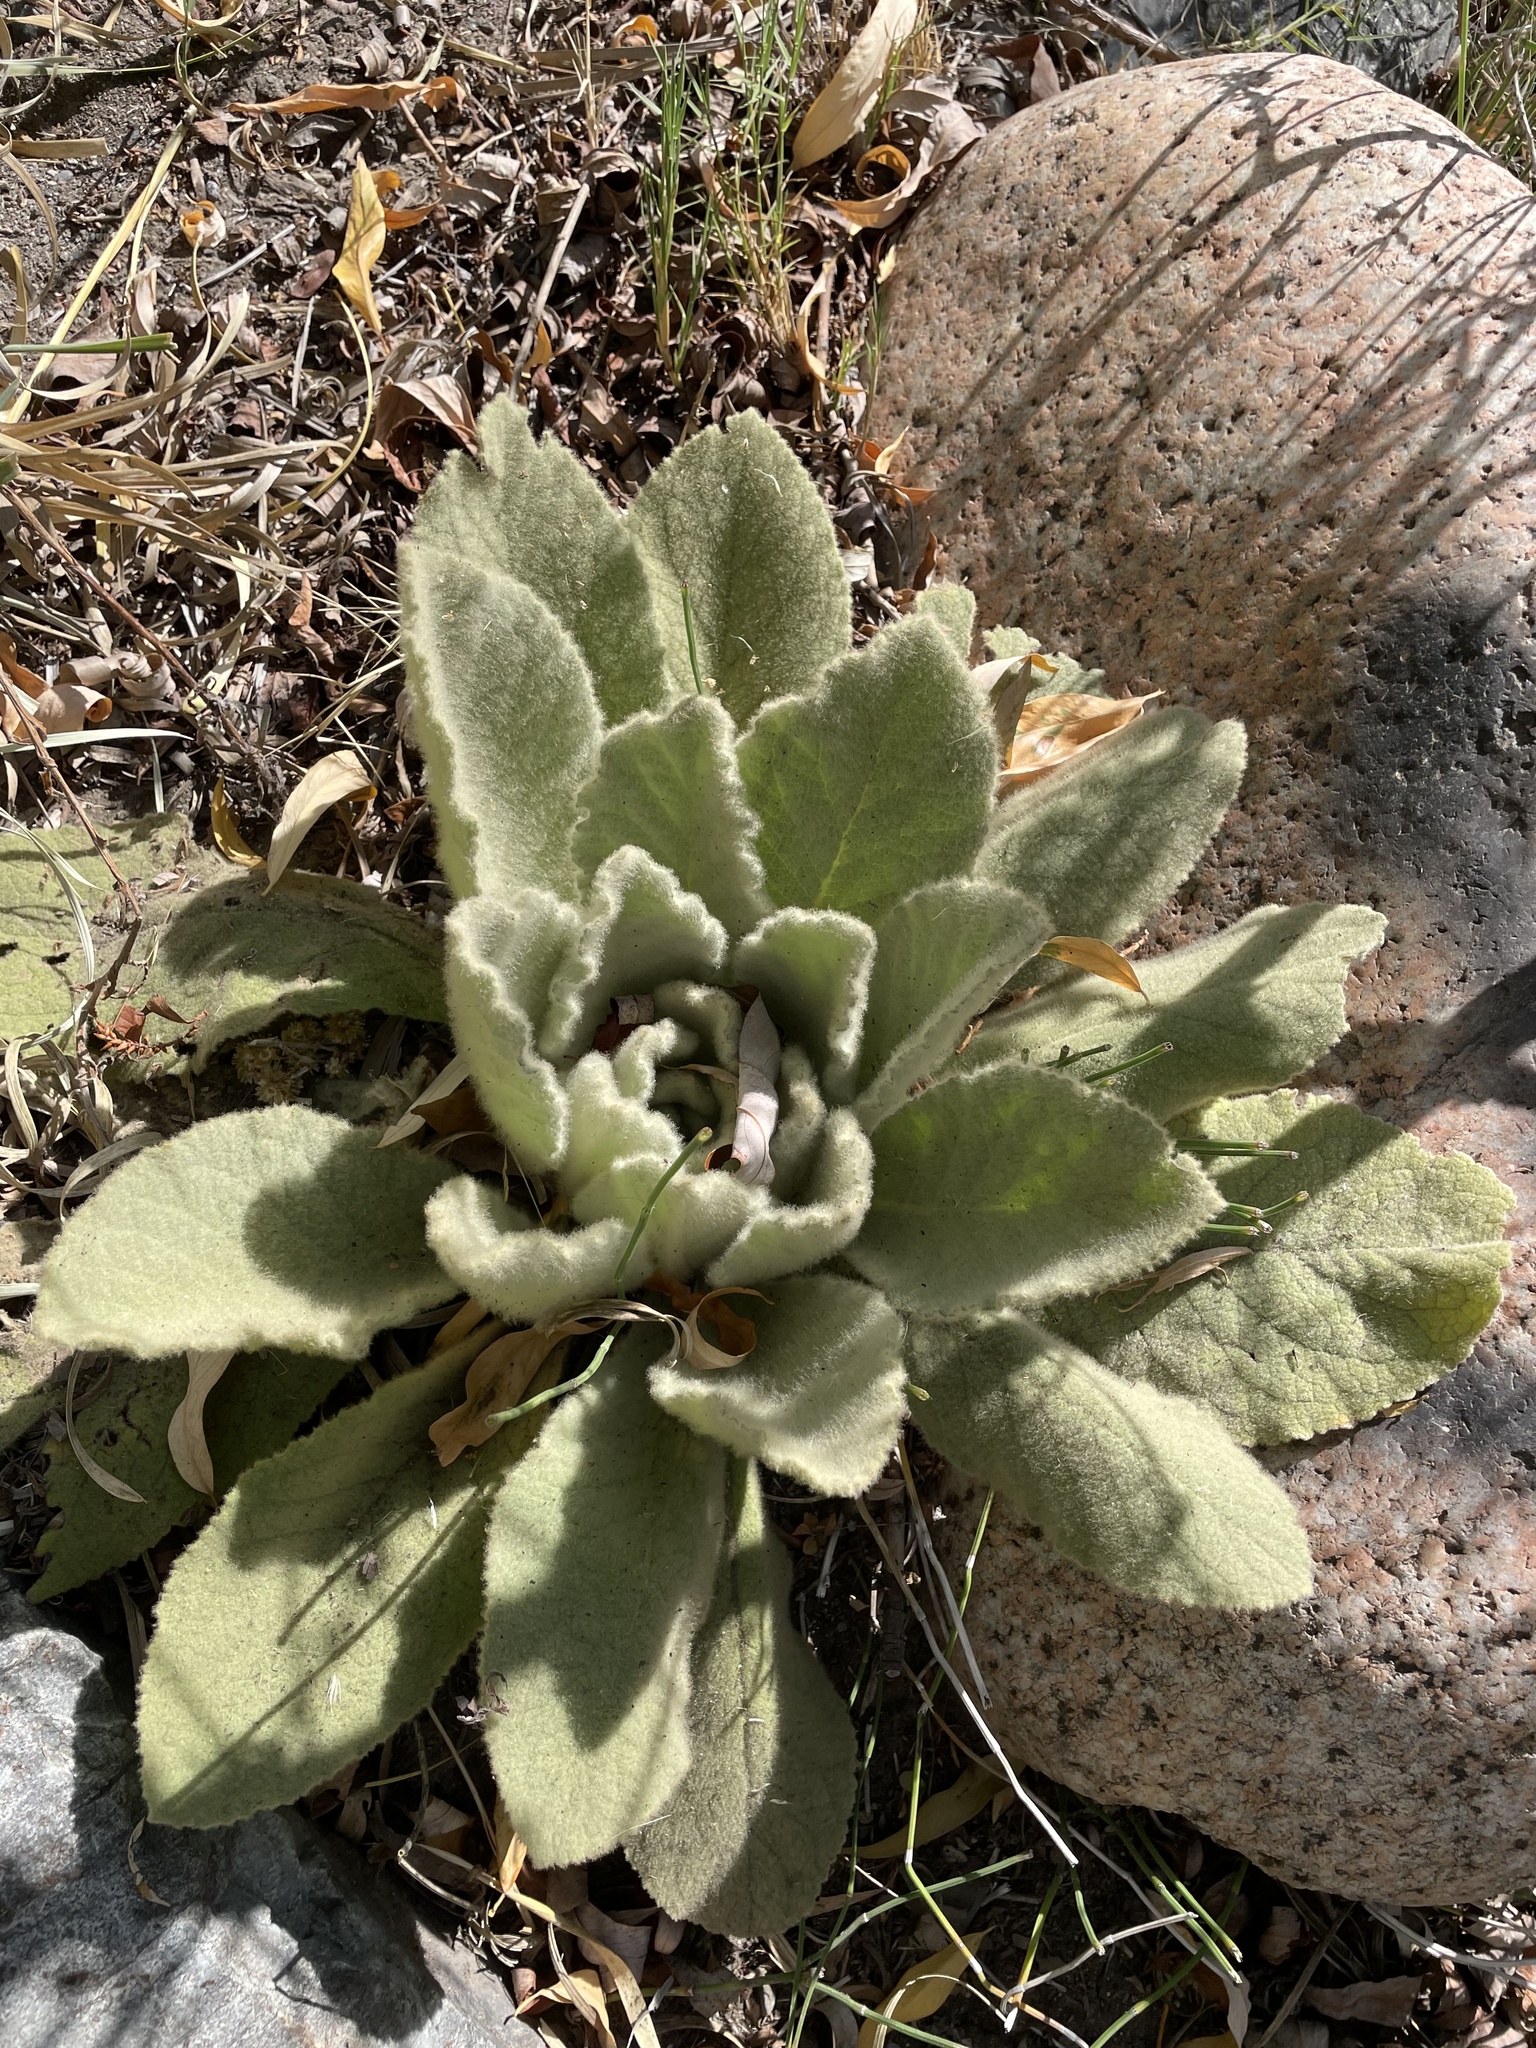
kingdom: Plantae
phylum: Tracheophyta
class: Magnoliopsida
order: Lamiales
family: Scrophulariaceae
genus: Verbascum
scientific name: Verbascum thapsus
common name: Common mullein
